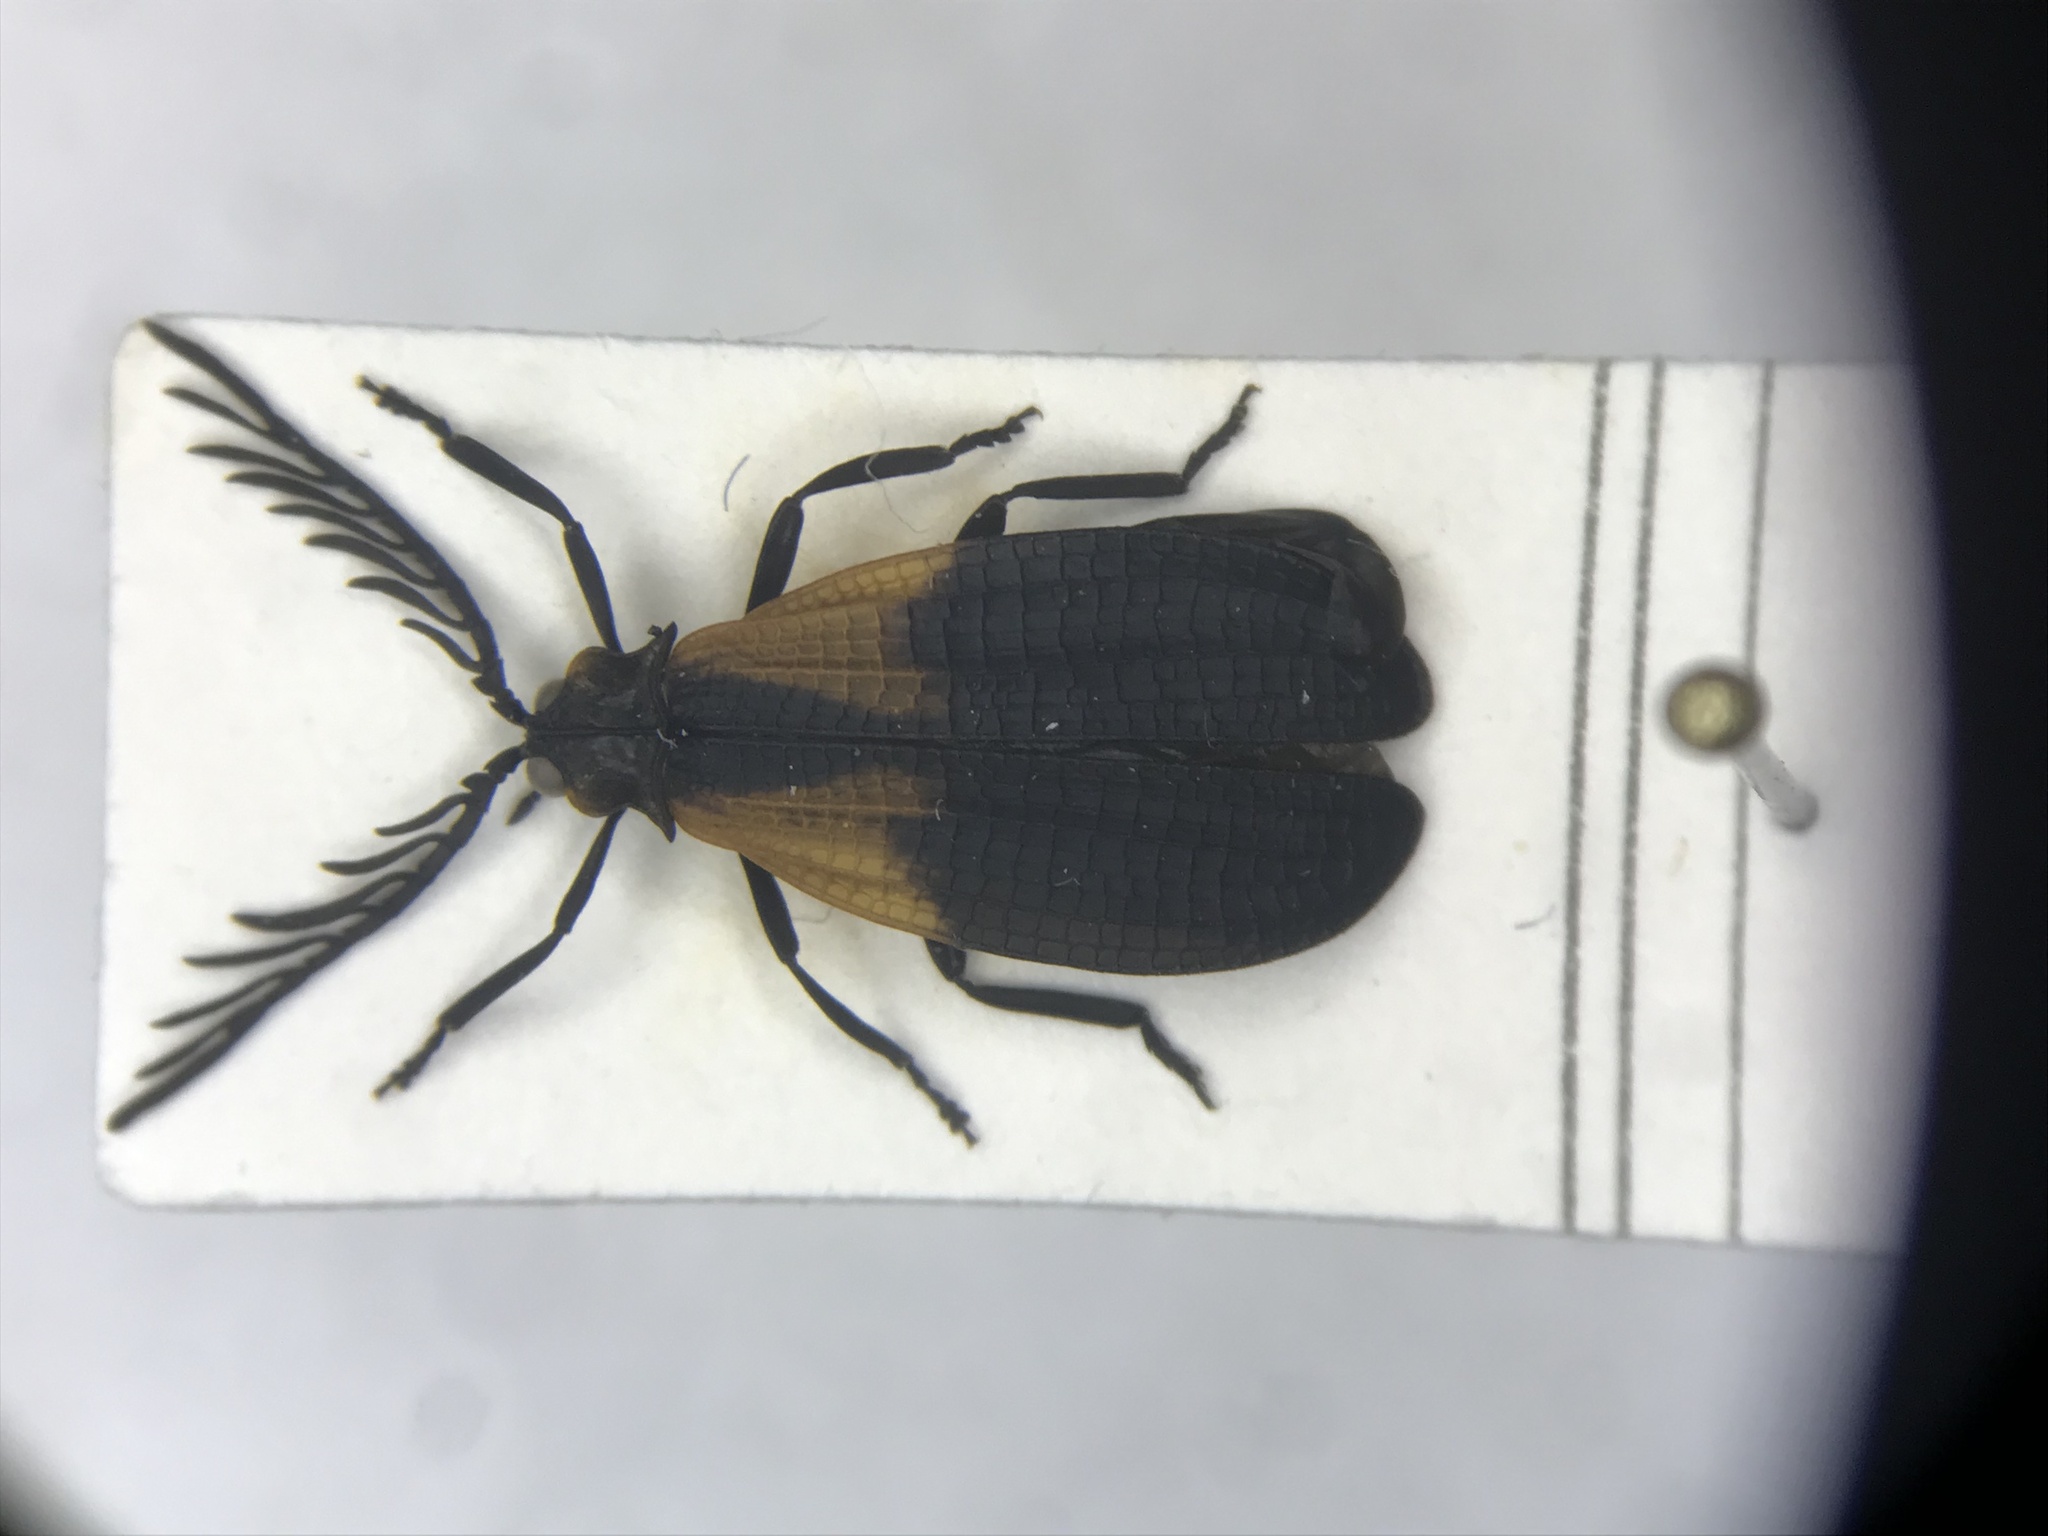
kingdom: Animalia
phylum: Arthropoda
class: Insecta
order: Coleoptera
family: Lycidae
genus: Caenia
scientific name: Caenia dimidiata
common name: Terminal net-winged beetle
